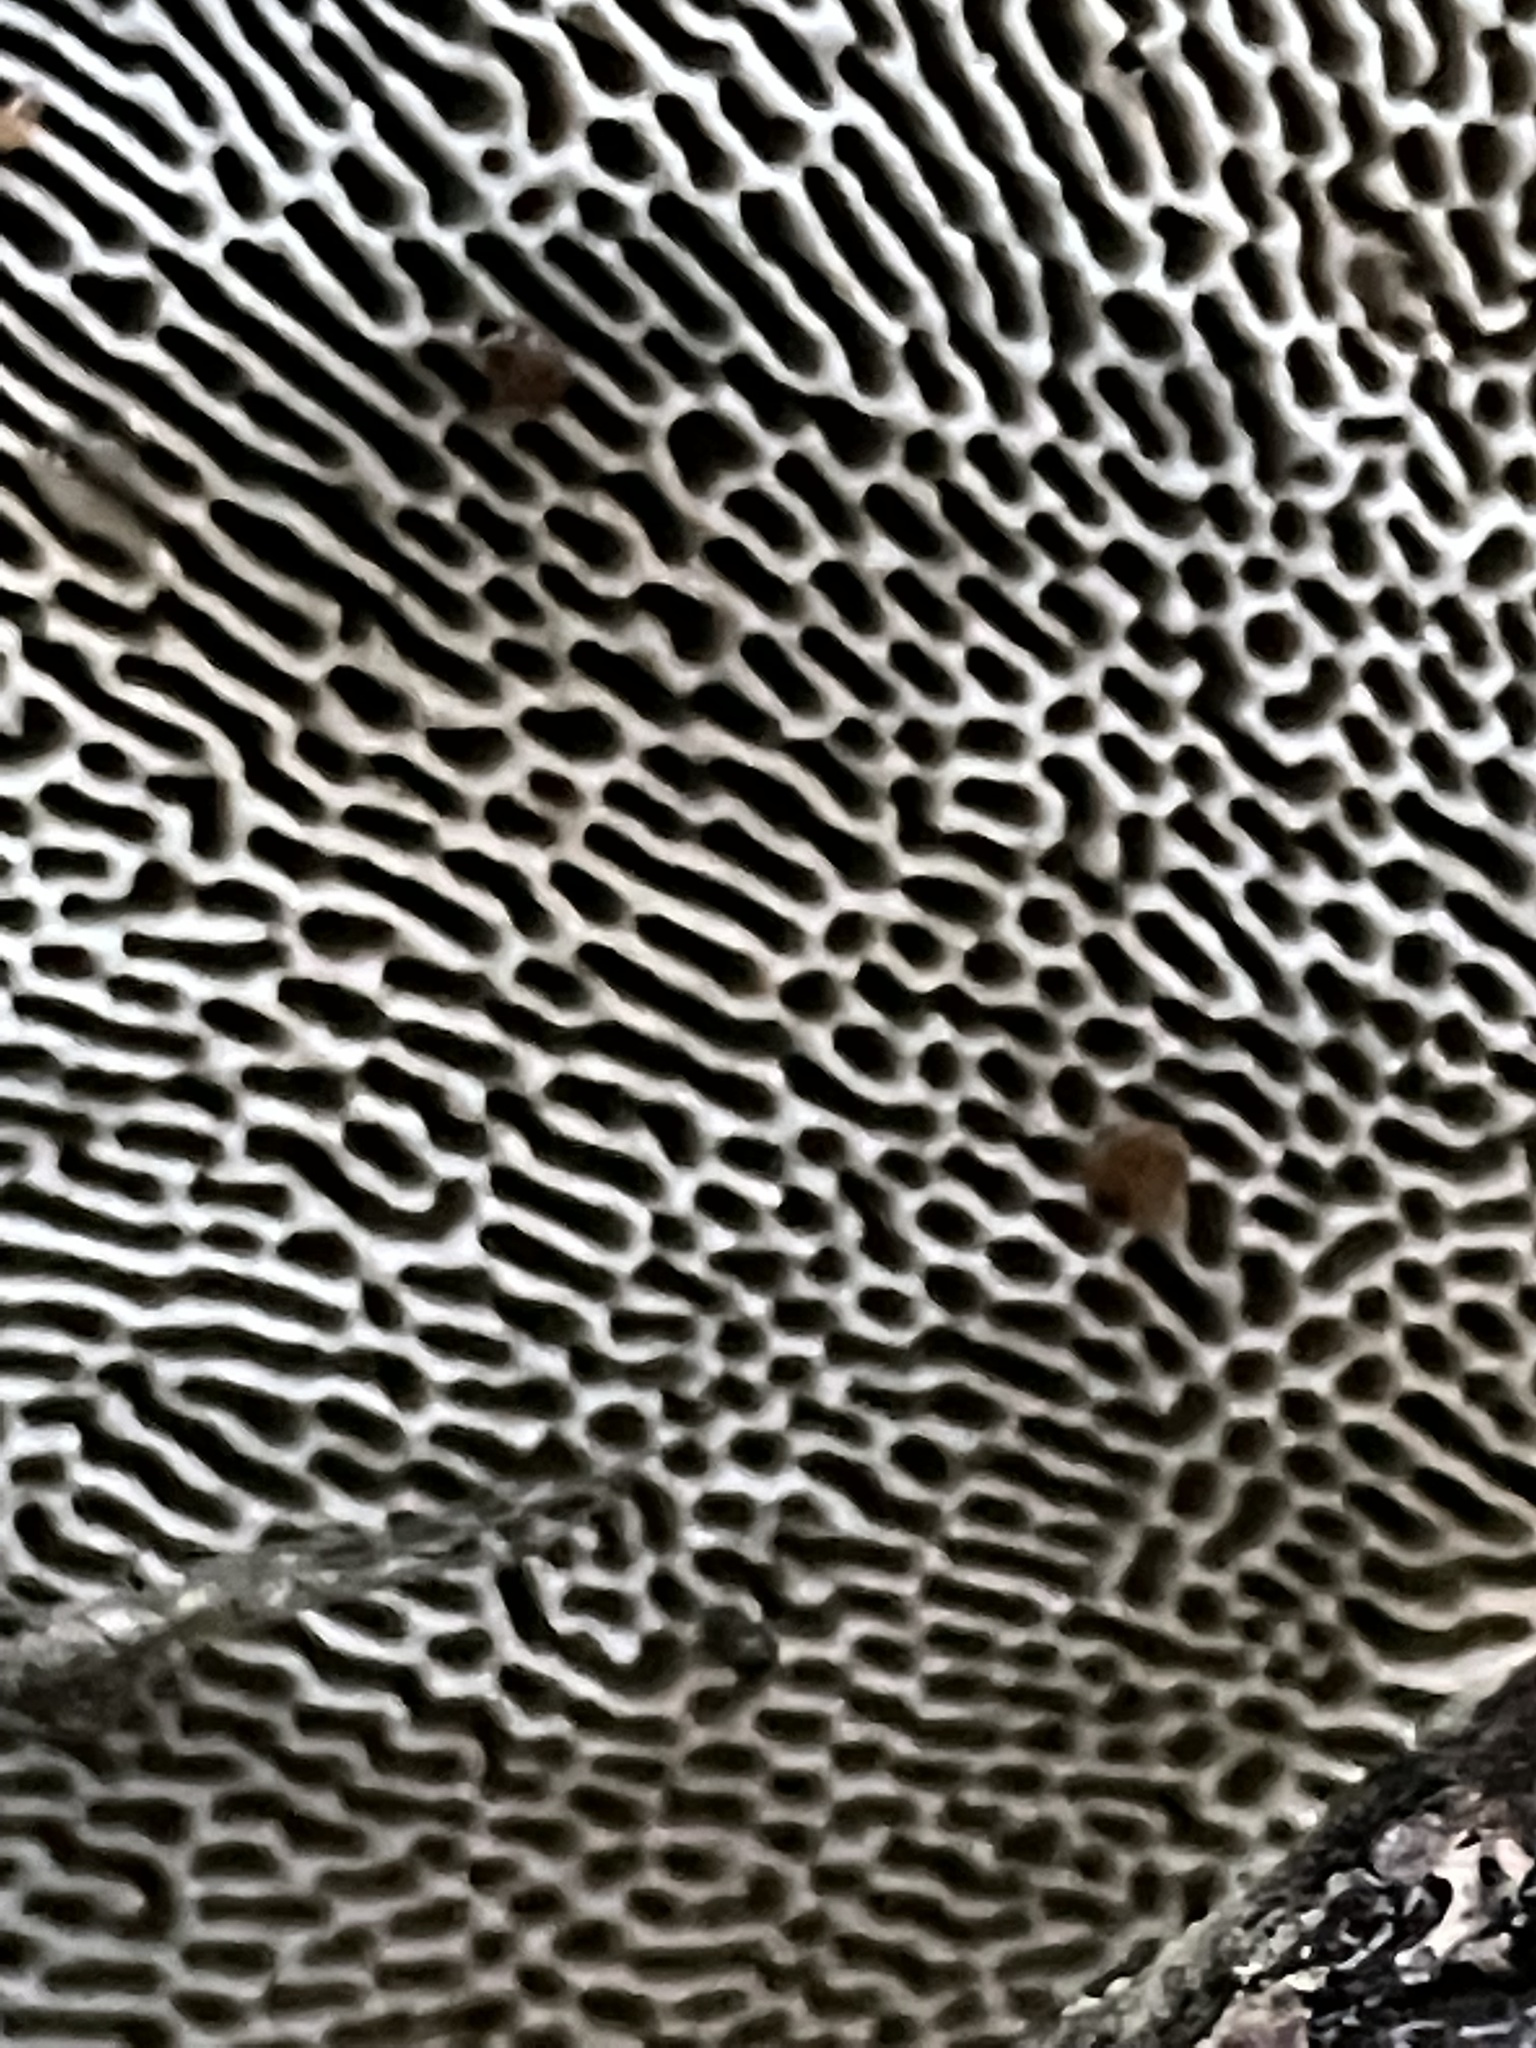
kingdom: Fungi
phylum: Basidiomycota
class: Agaricomycetes
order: Polyporales
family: Polyporaceae
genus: Daedaleopsis
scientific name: Daedaleopsis confragosa
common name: Blushing bracket
